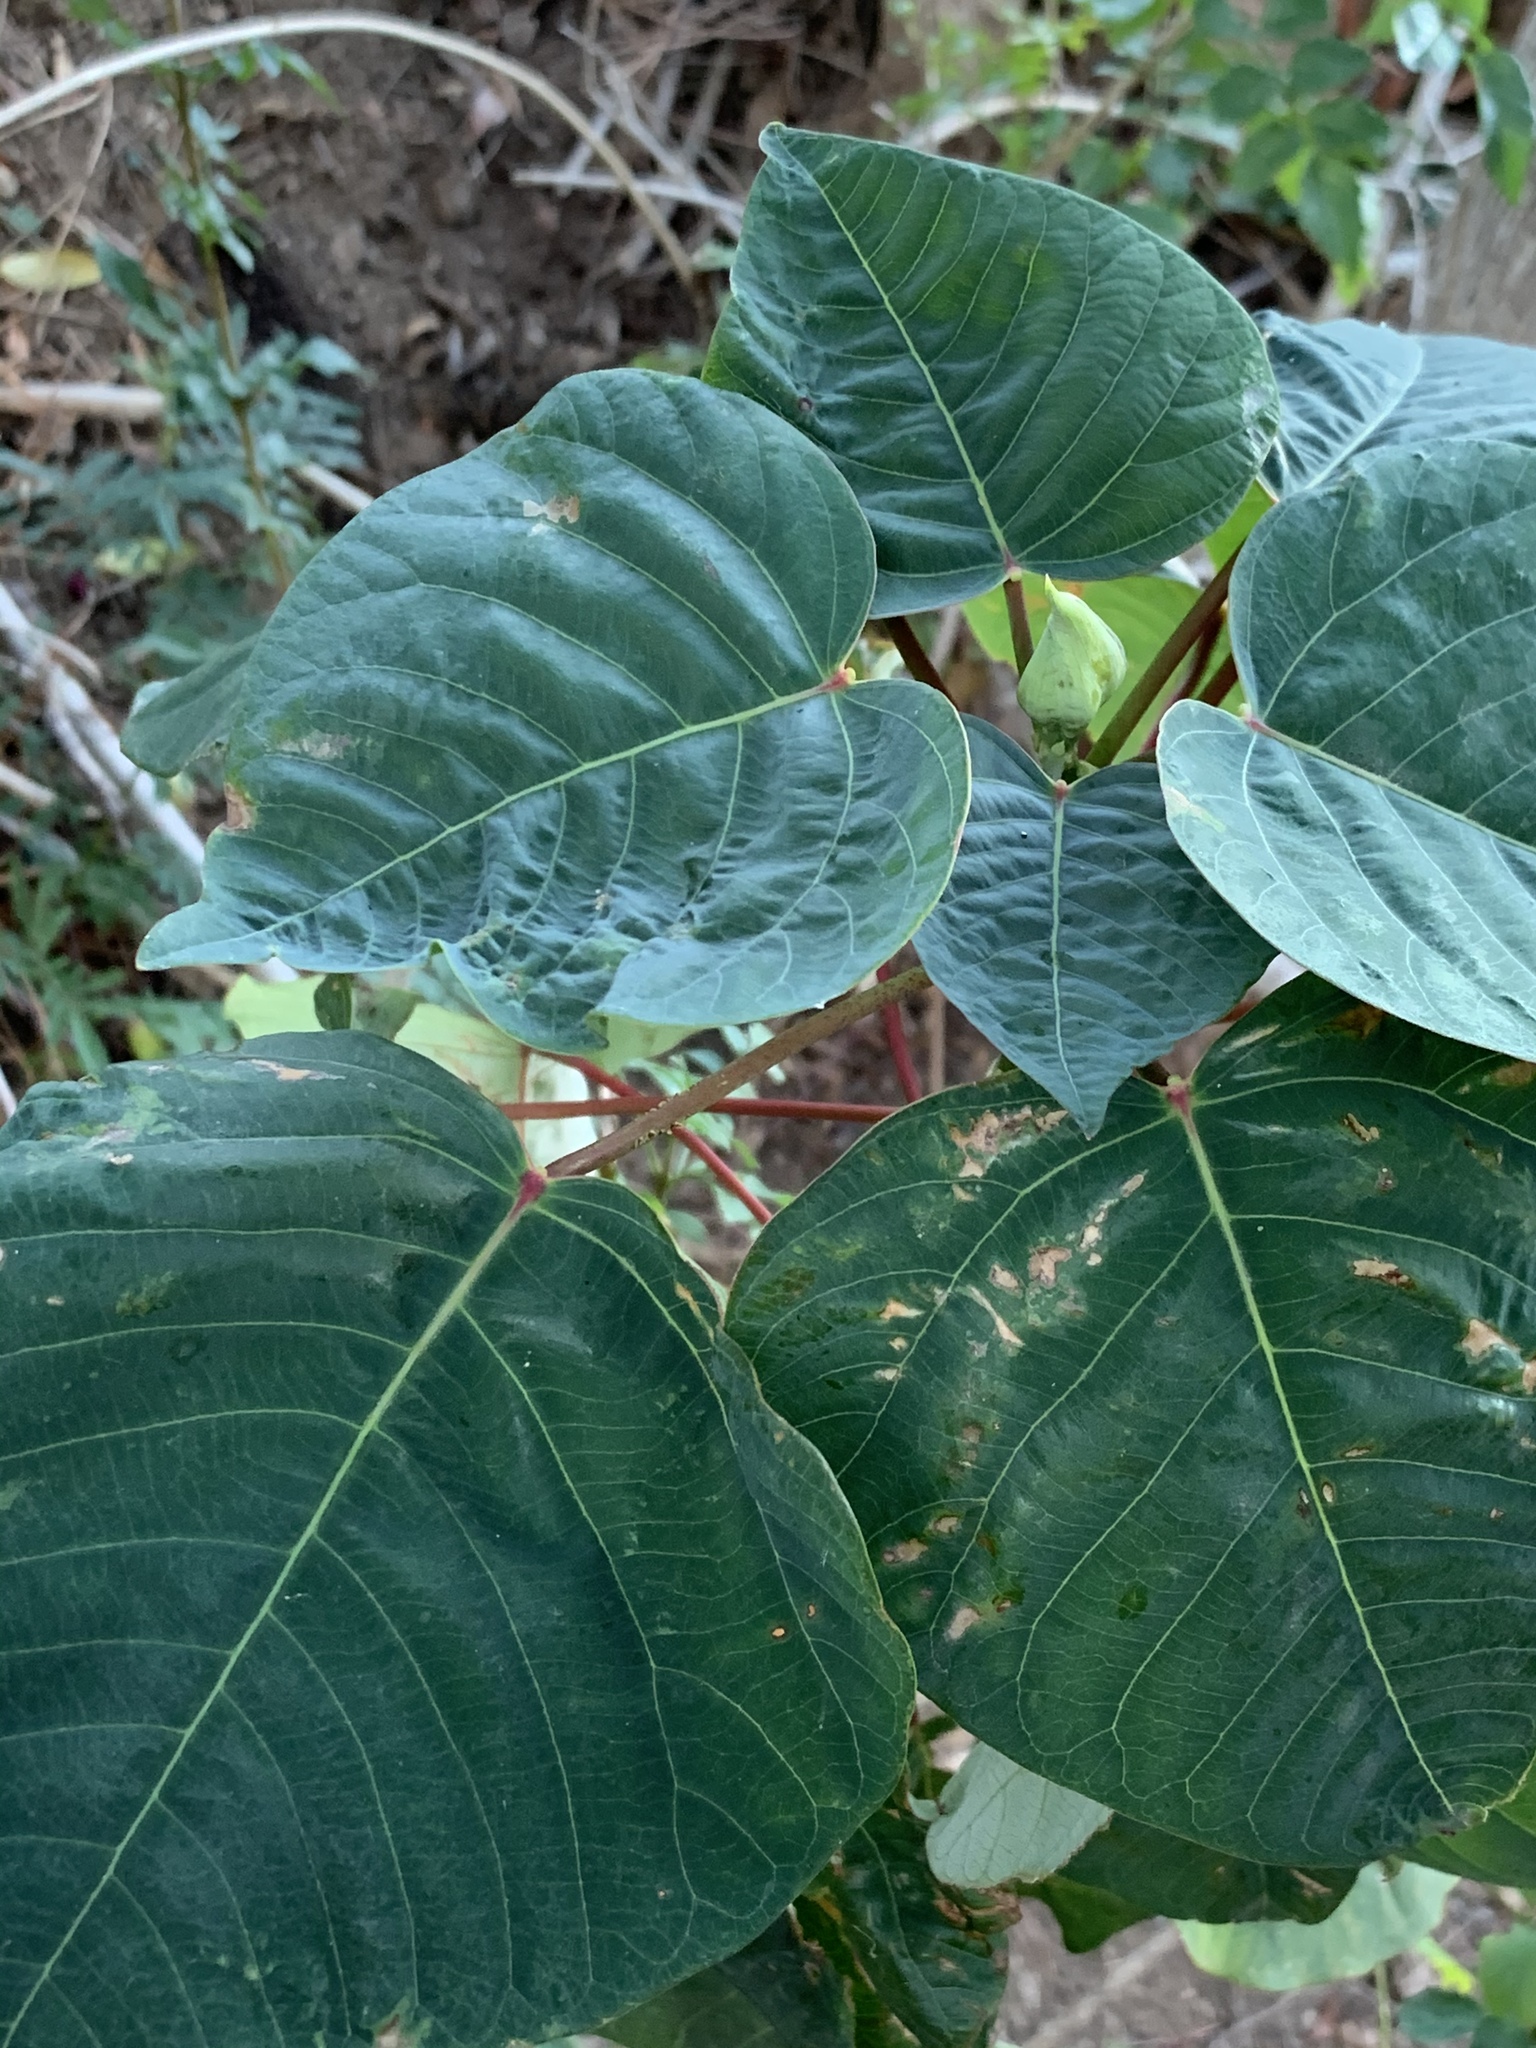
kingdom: Plantae
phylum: Tracheophyta
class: Magnoliopsida
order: Malpighiales
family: Euphorbiaceae
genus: Homalanthus
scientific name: Homalanthus populifolius
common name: Queensland poplar
